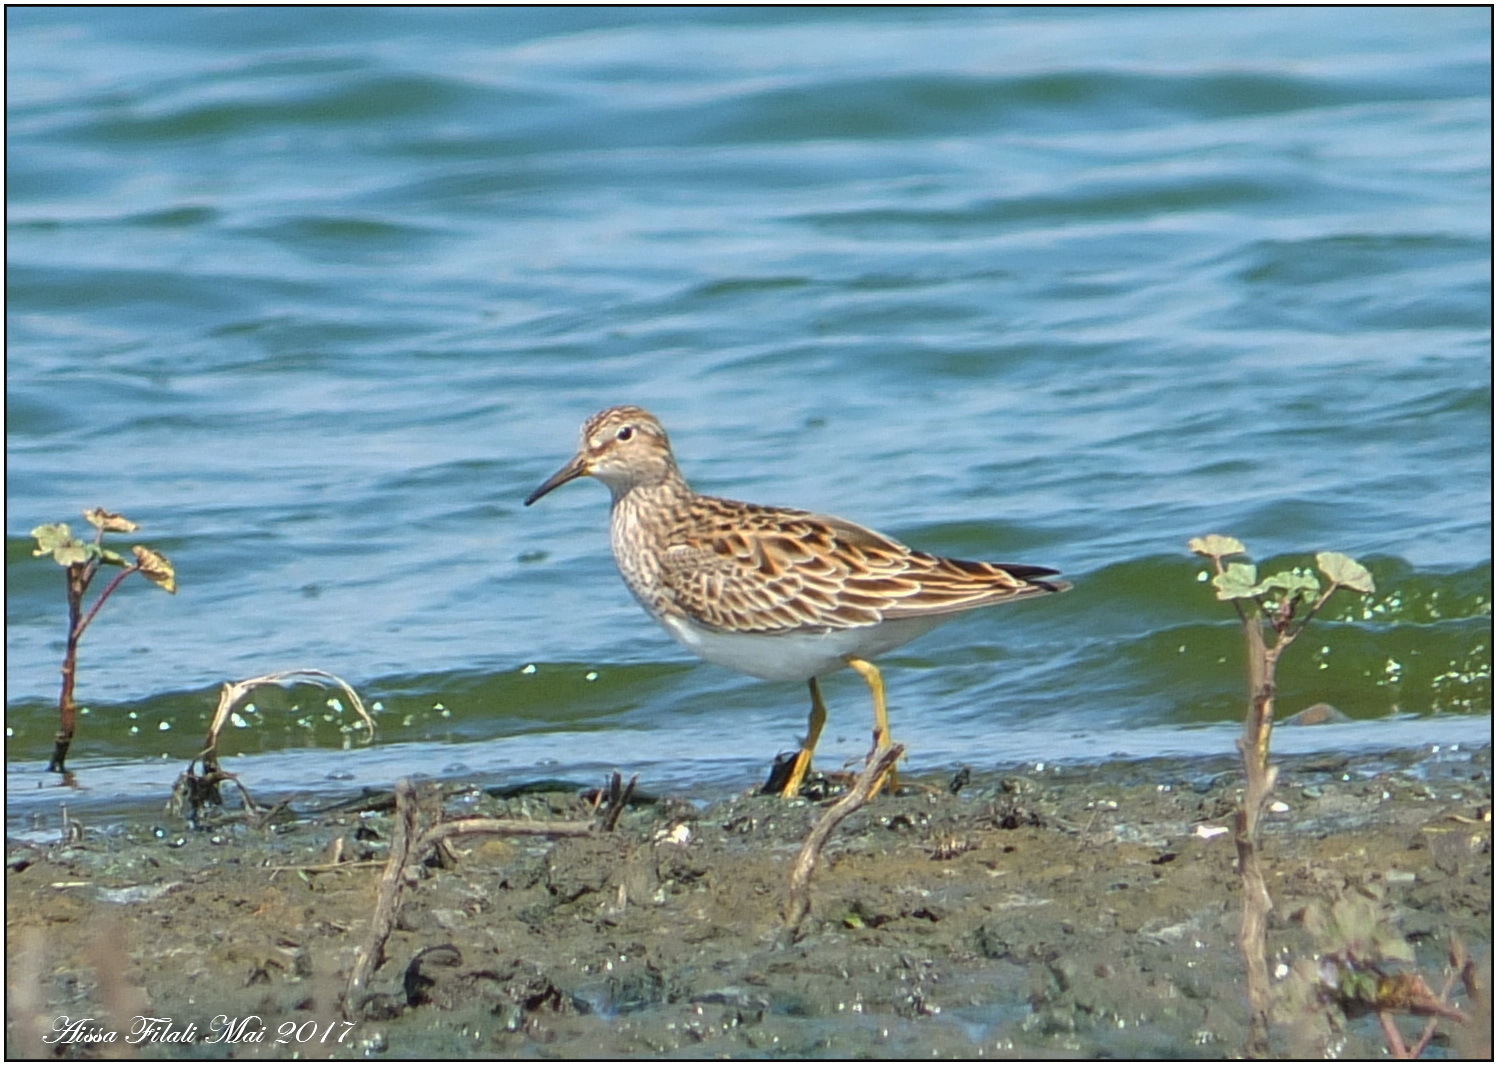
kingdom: Animalia
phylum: Chordata
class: Aves
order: Charadriiformes
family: Scolopacidae
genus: Calidris
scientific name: Calidris melanotos
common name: Pectoral sandpiper
